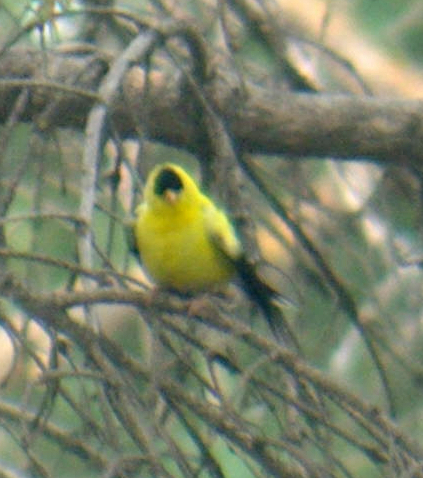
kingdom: Animalia
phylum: Chordata
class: Aves
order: Passeriformes
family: Fringillidae
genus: Spinus
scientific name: Spinus tristis
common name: American goldfinch
